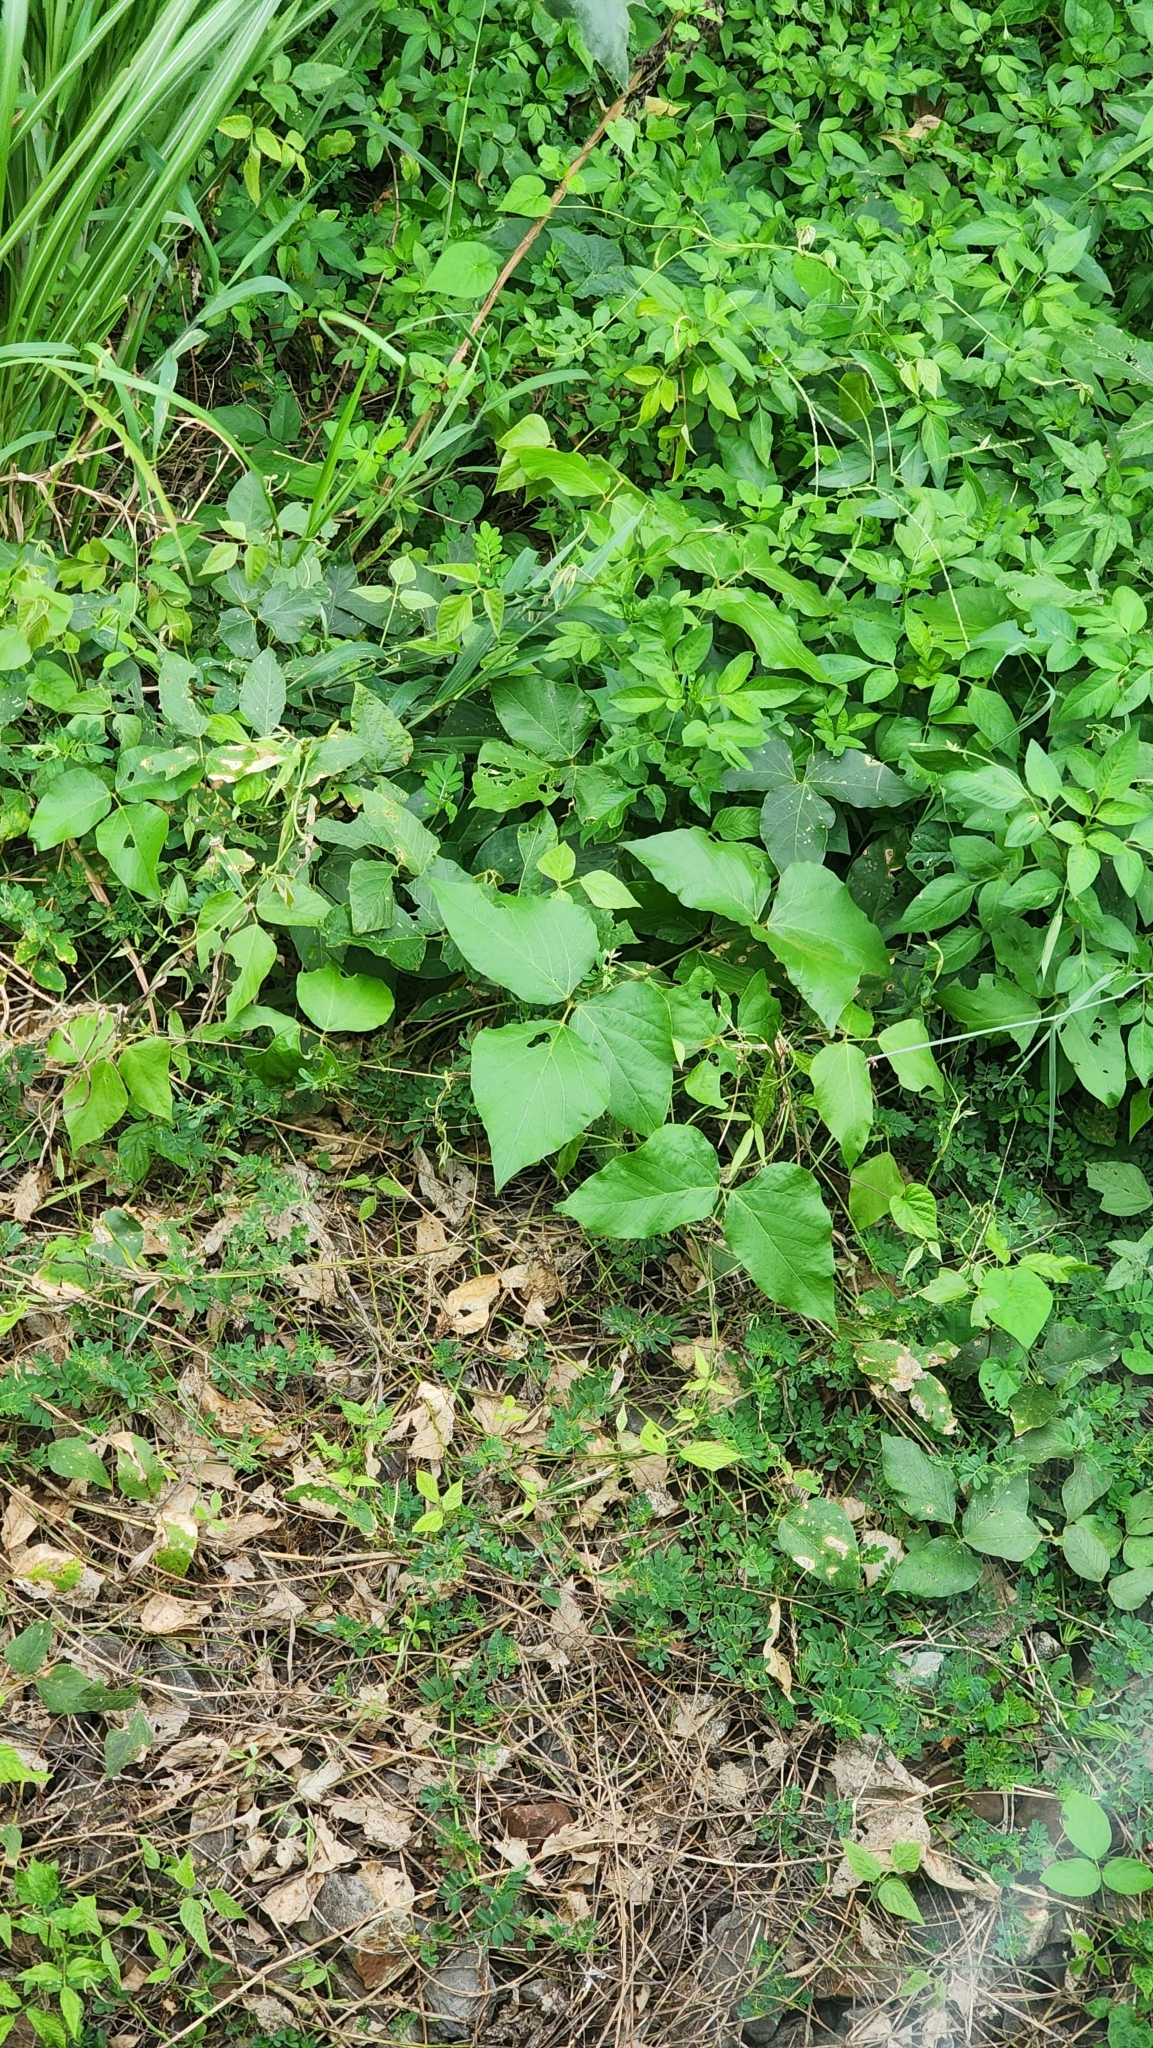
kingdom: Plantae
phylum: Tracheophyta
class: Magnoliopsida
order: Fabales
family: Fabaceae
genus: Pueraria
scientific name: Pueraria montana
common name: Kudzu
